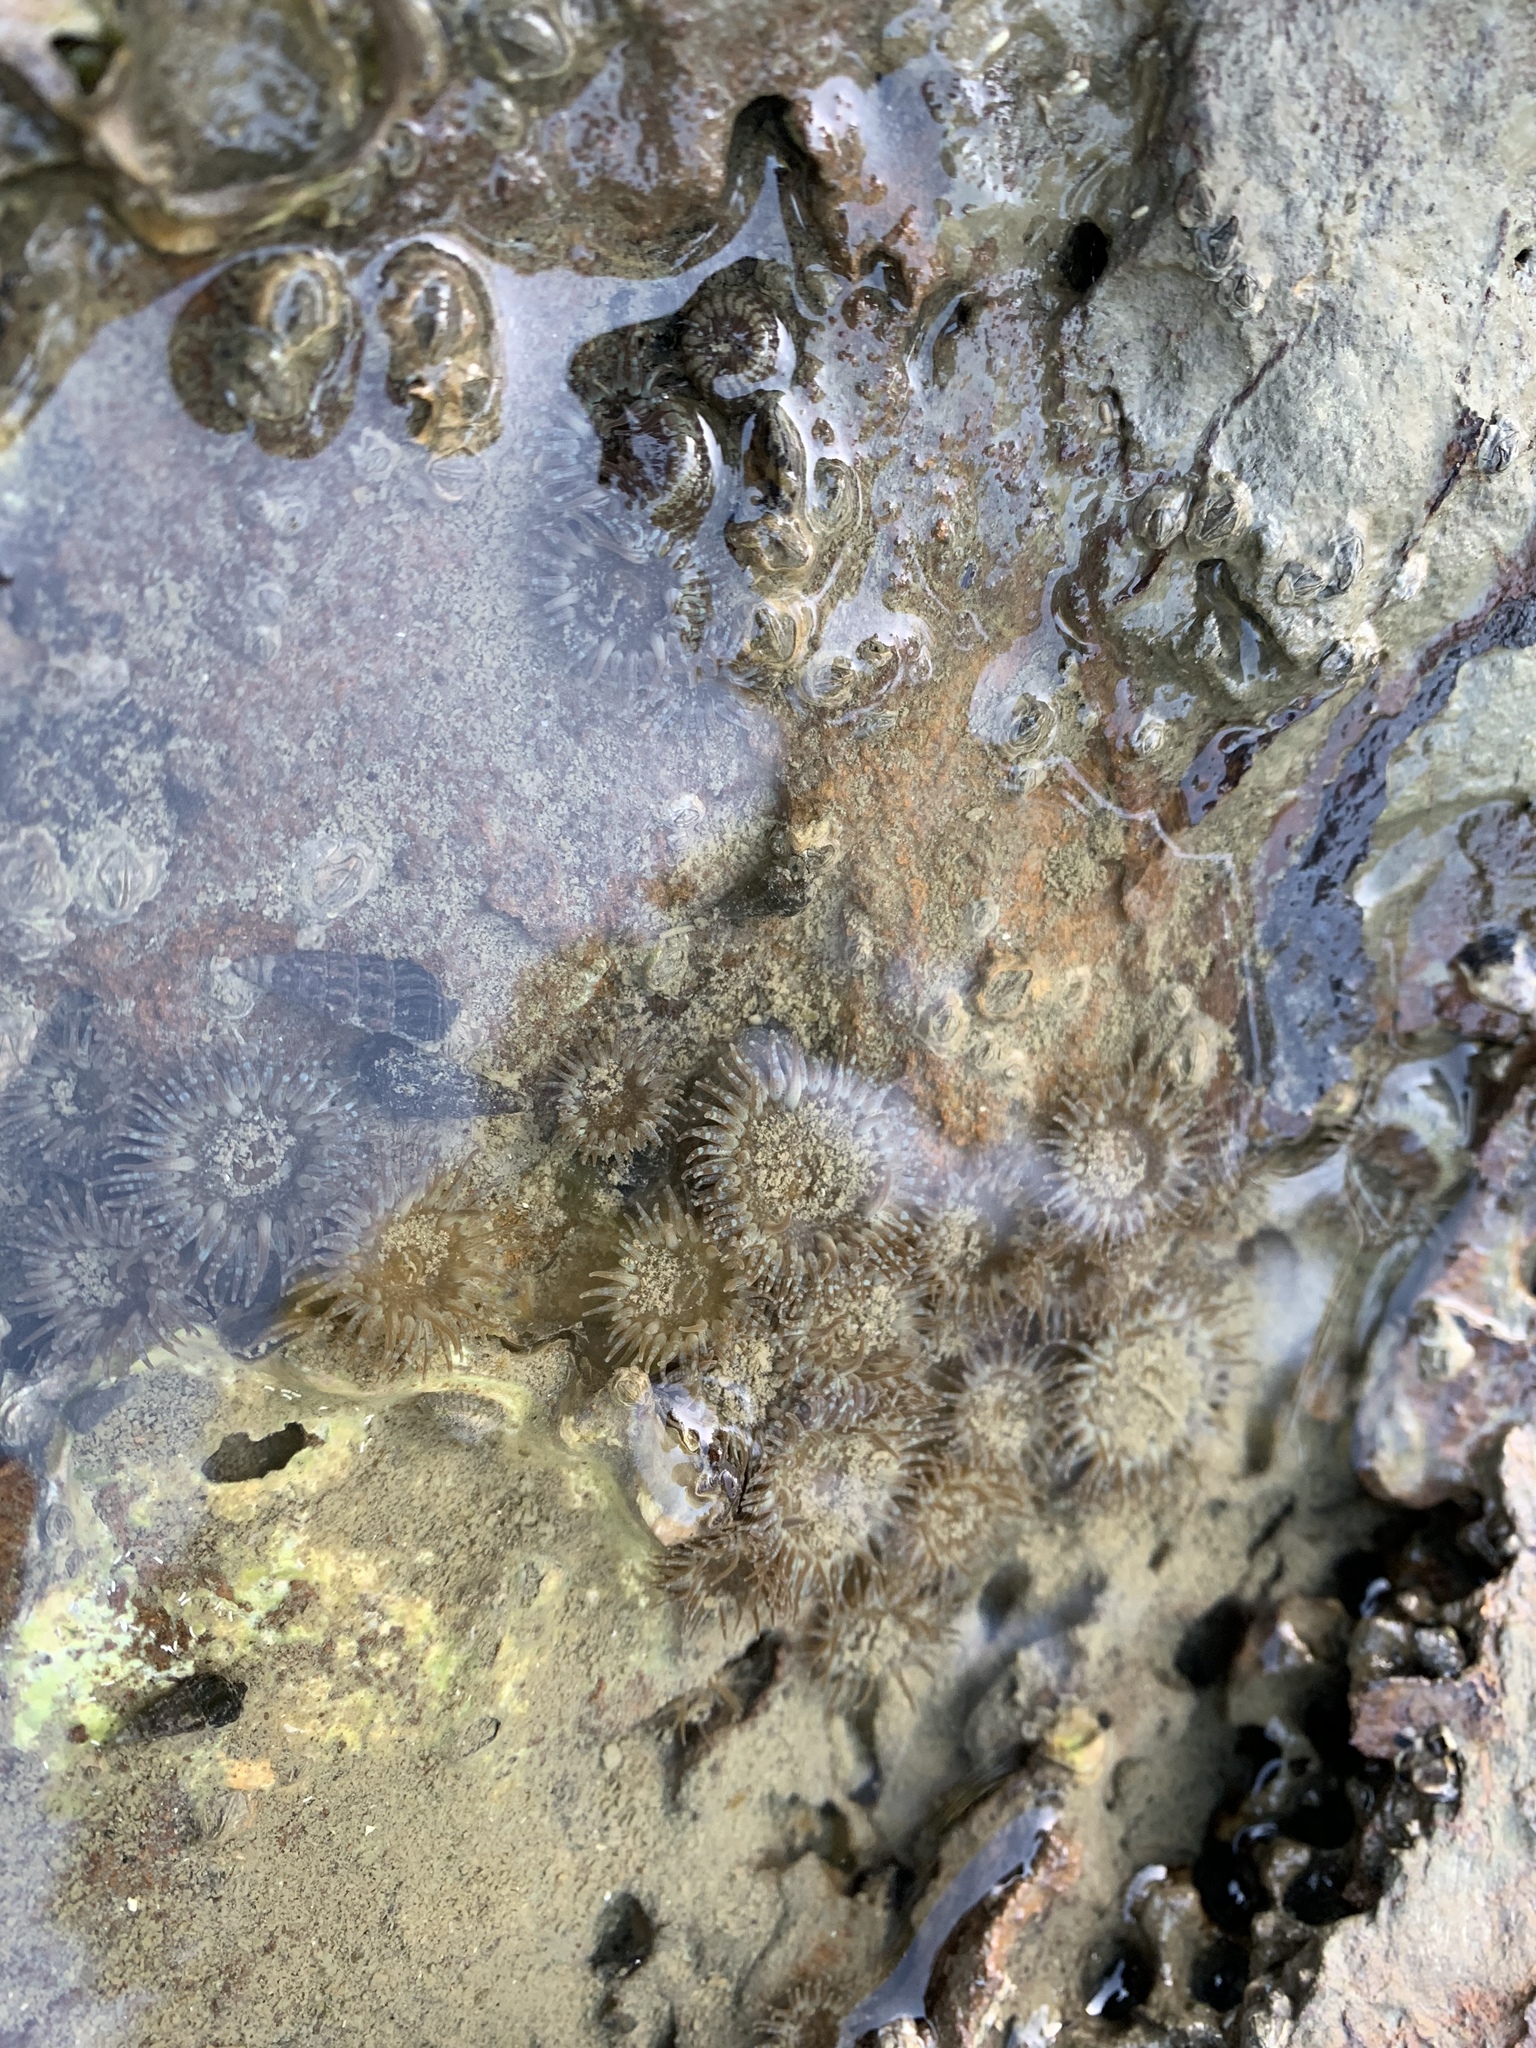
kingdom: Animalia
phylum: Cnidaria
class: Anthozoa
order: Actiniaria
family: Actiniidae
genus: Anthopleura
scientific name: Anthopleura hermaphroditica
